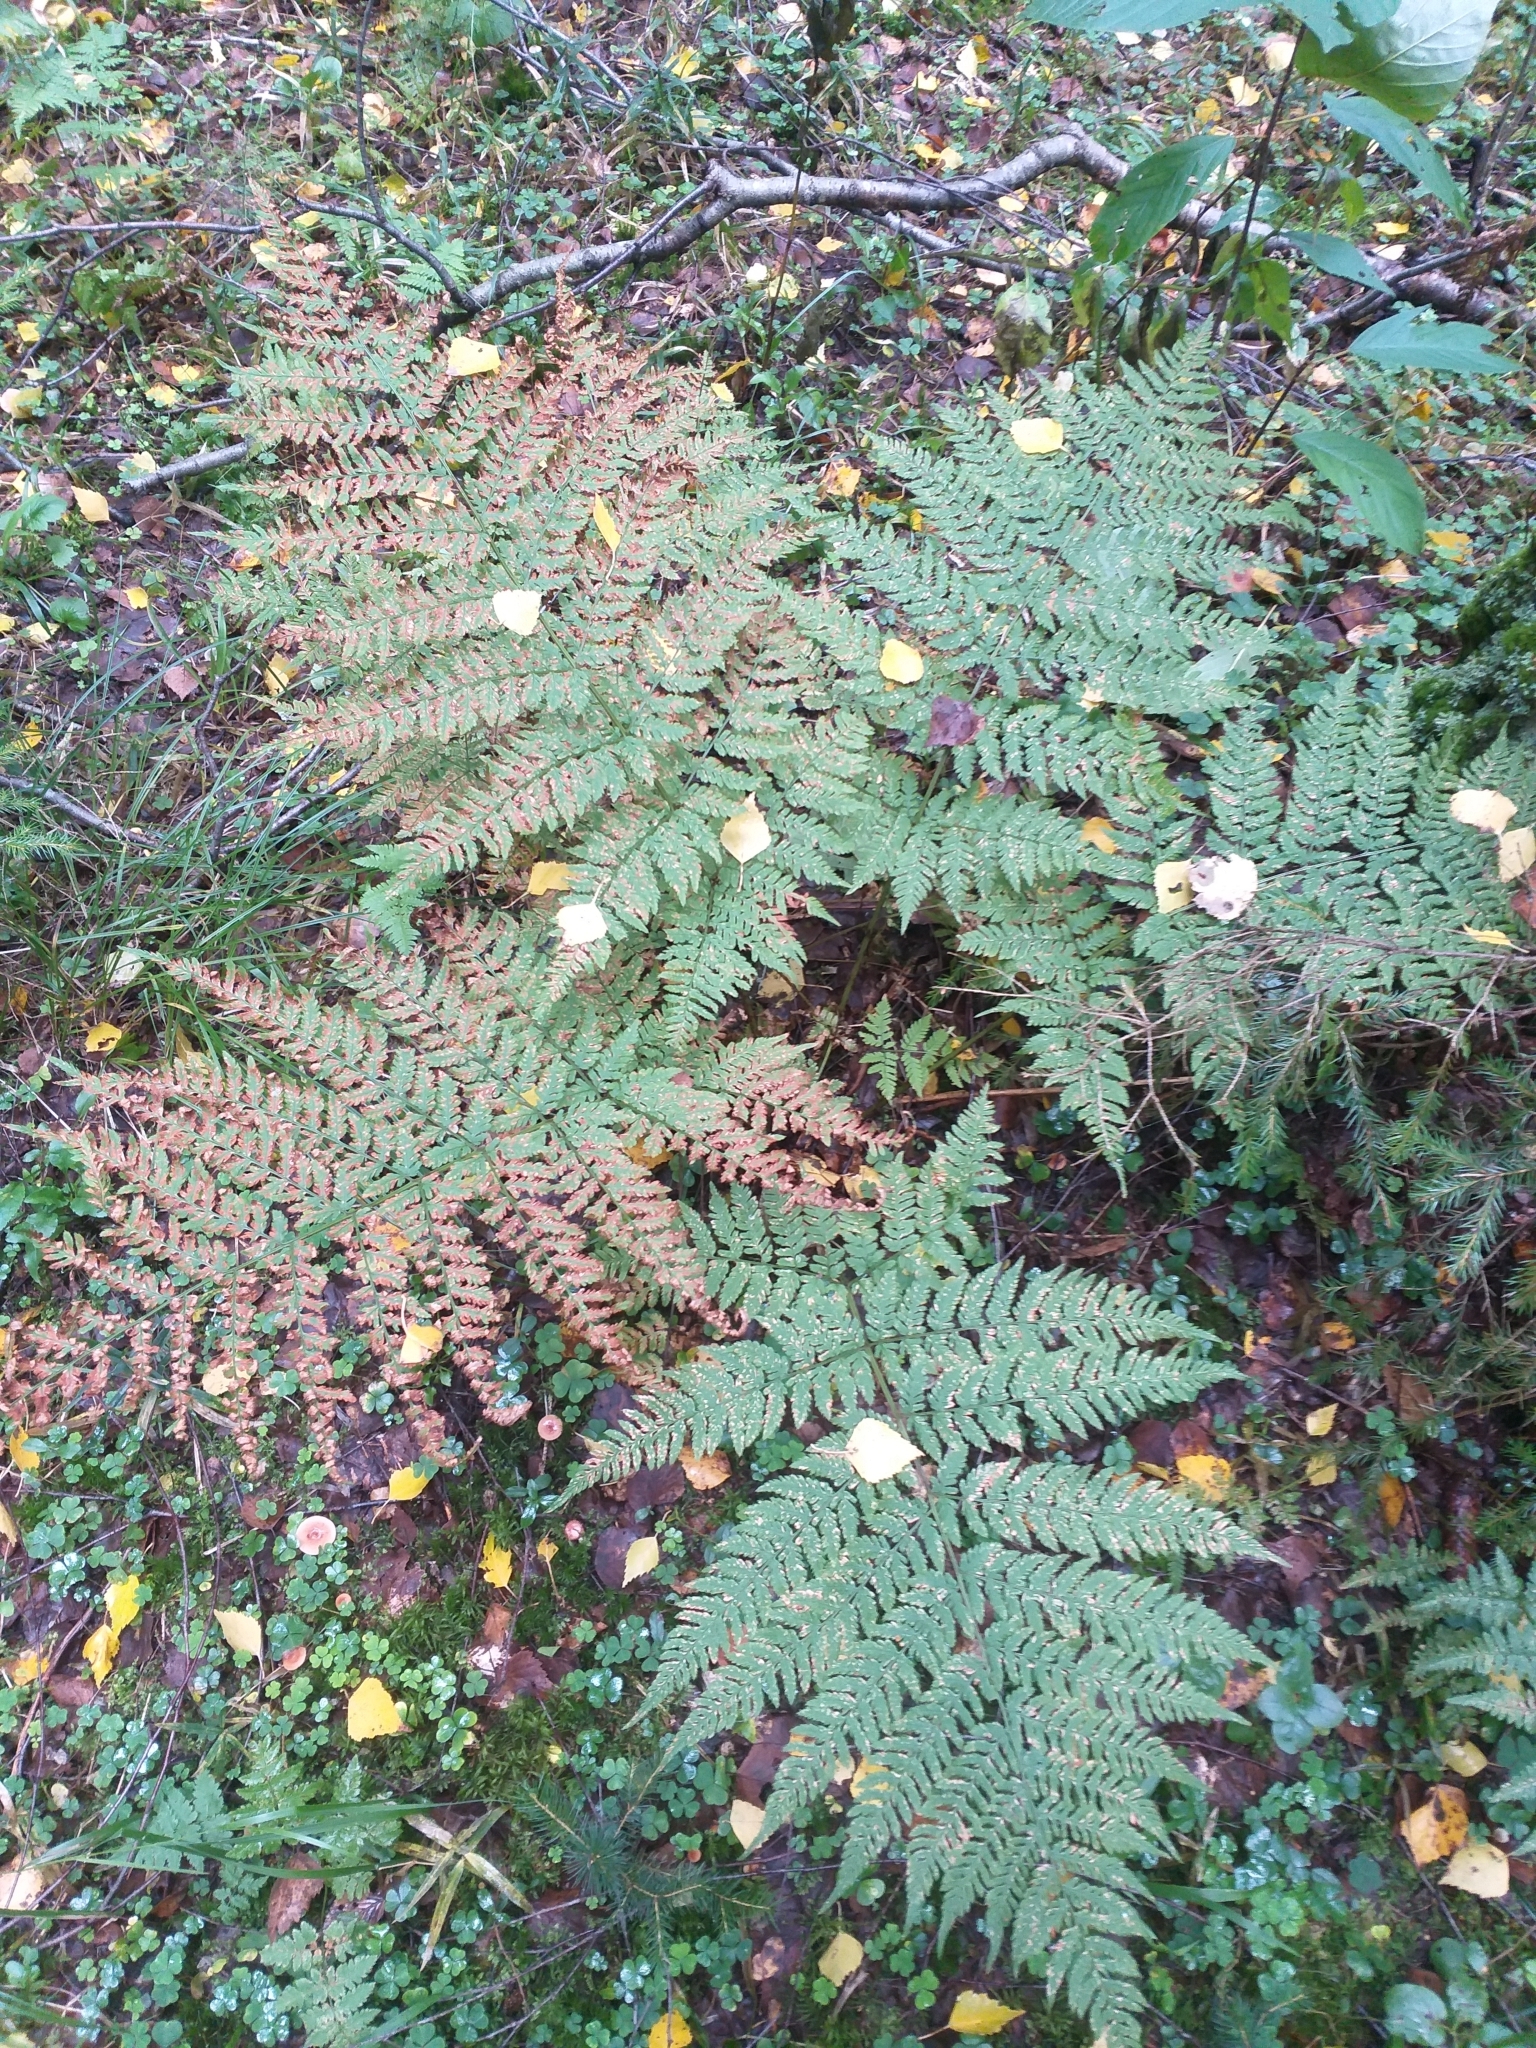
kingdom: Plantae
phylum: Tracheophyta
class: Polypodiopsida
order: Polypodiales
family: Dryopteridaceae
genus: Dryopteris
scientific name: Dryopteris expansa
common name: Northern buckler fern
